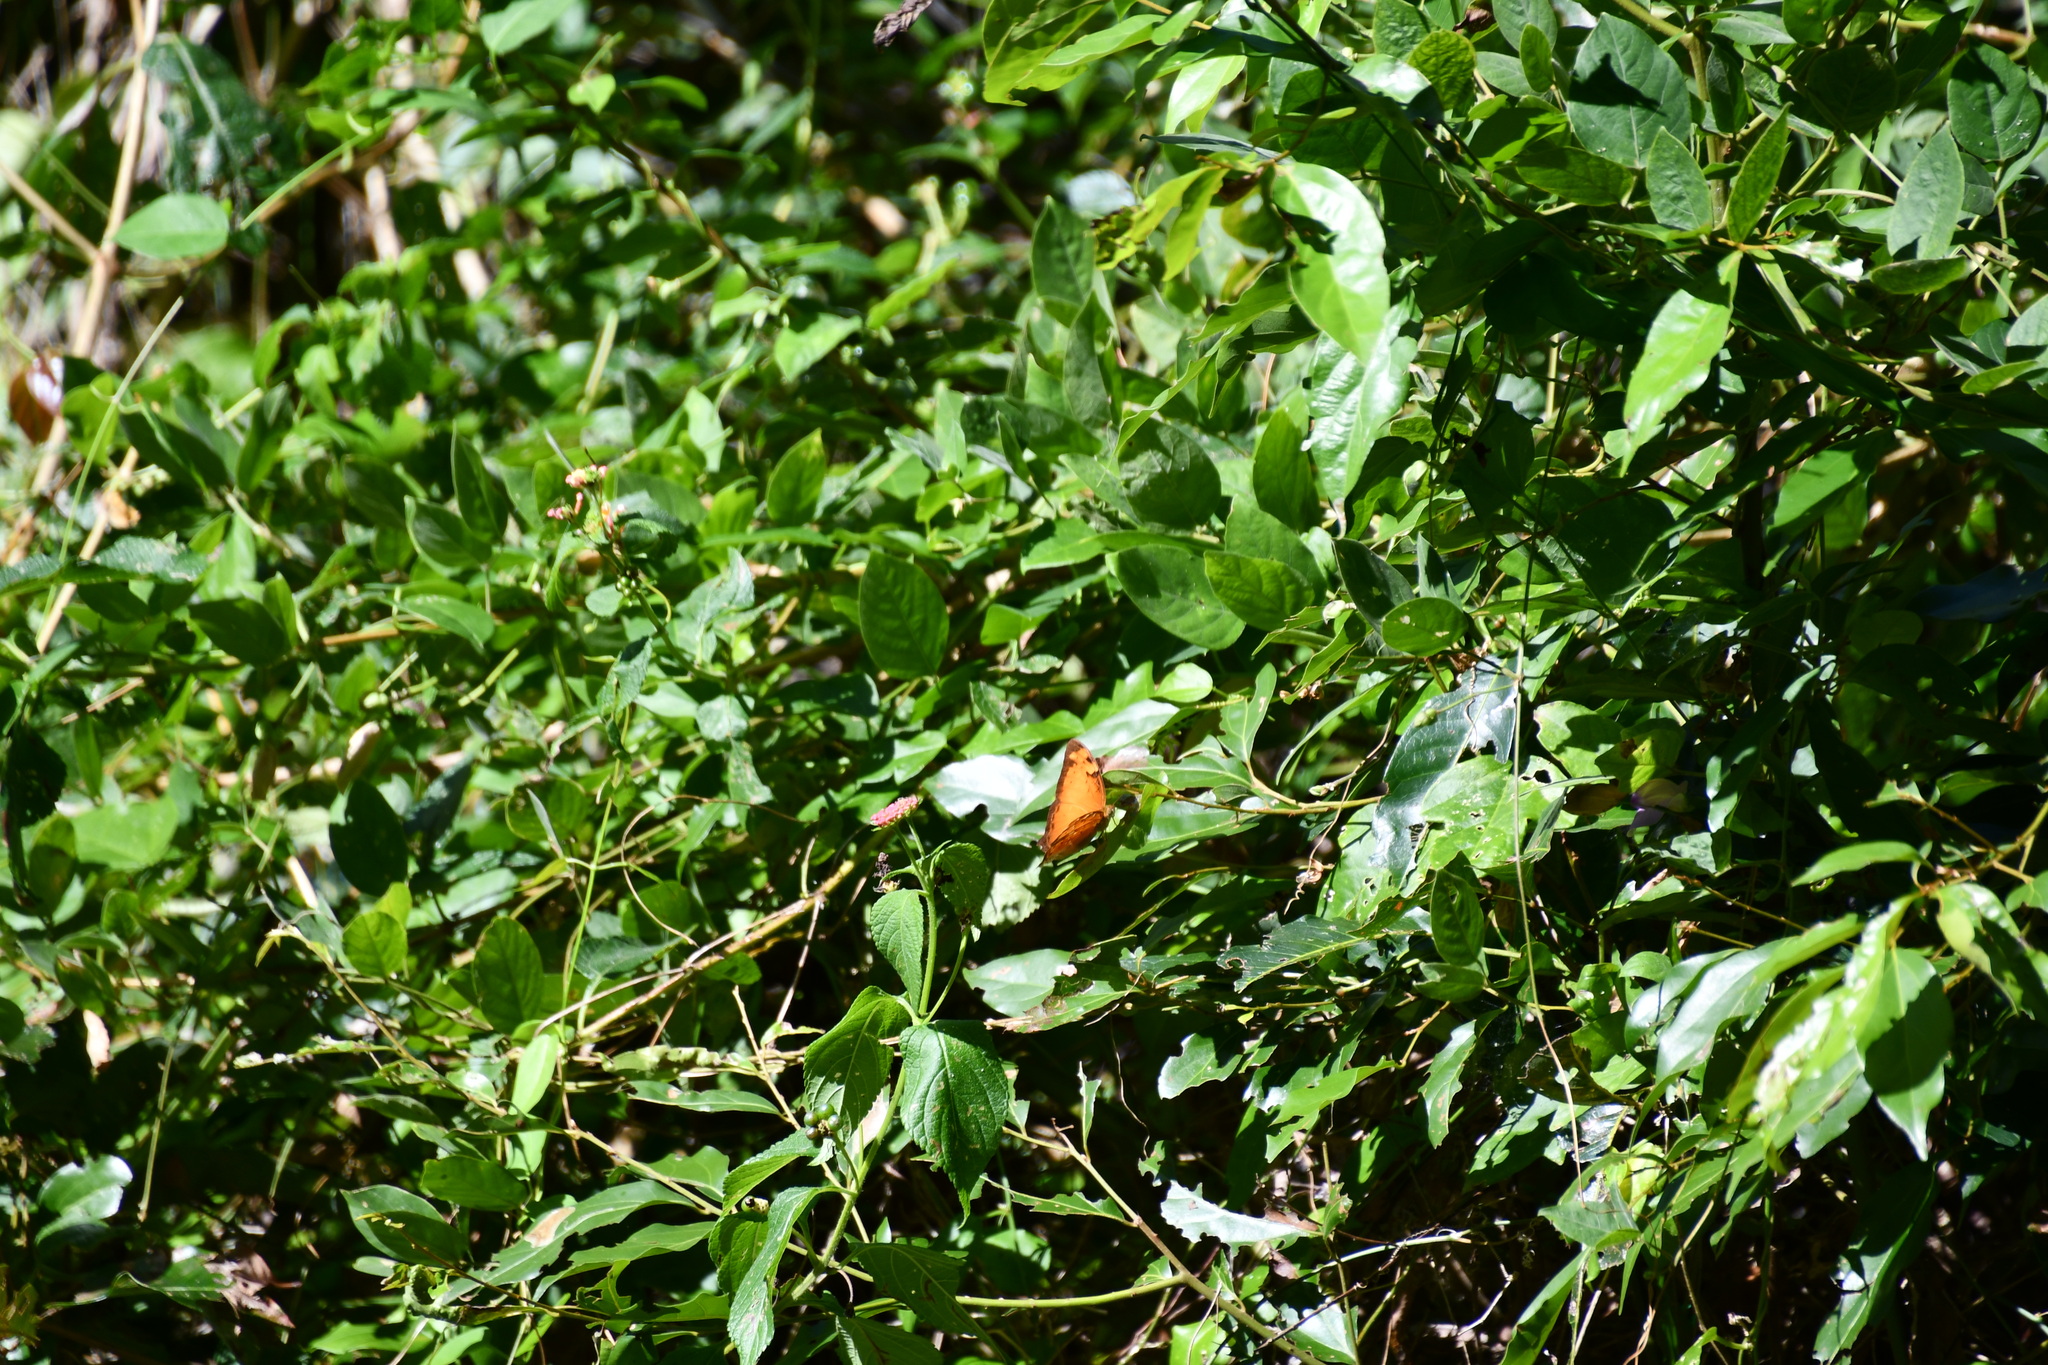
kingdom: Animalia
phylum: Arthropoda
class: Insecta
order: Lepidoptera
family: Nymphalidae
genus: Vagrans
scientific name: Vagrans egista
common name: Tailed rustic
